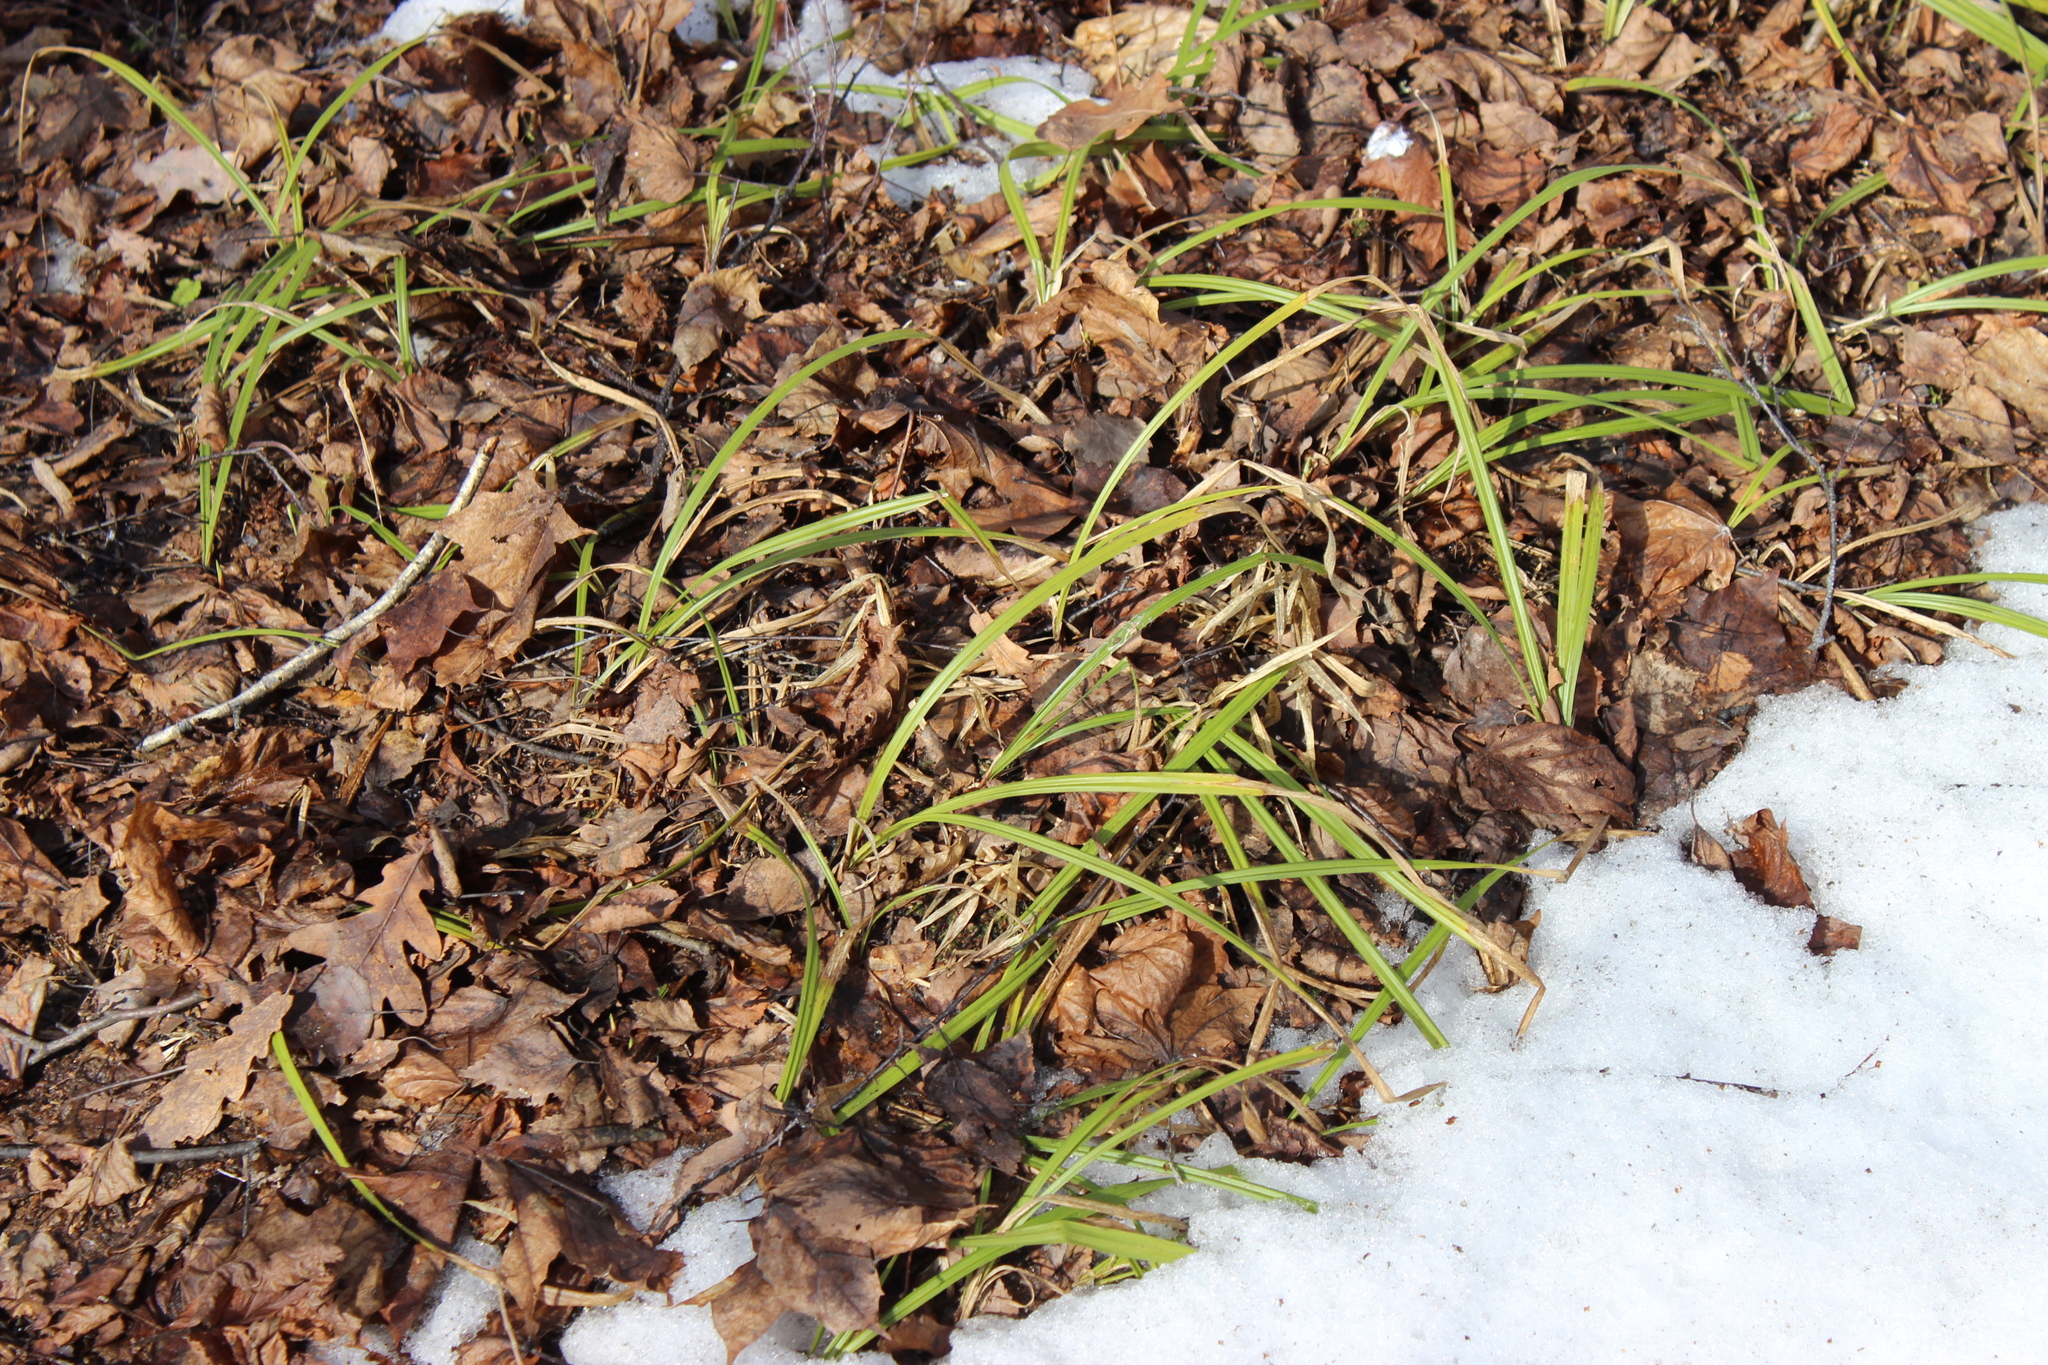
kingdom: Plantae
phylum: Tracheophyta
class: Liliopsida
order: Poales
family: Cyperaceae
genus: Carex
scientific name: Carex pilosa
